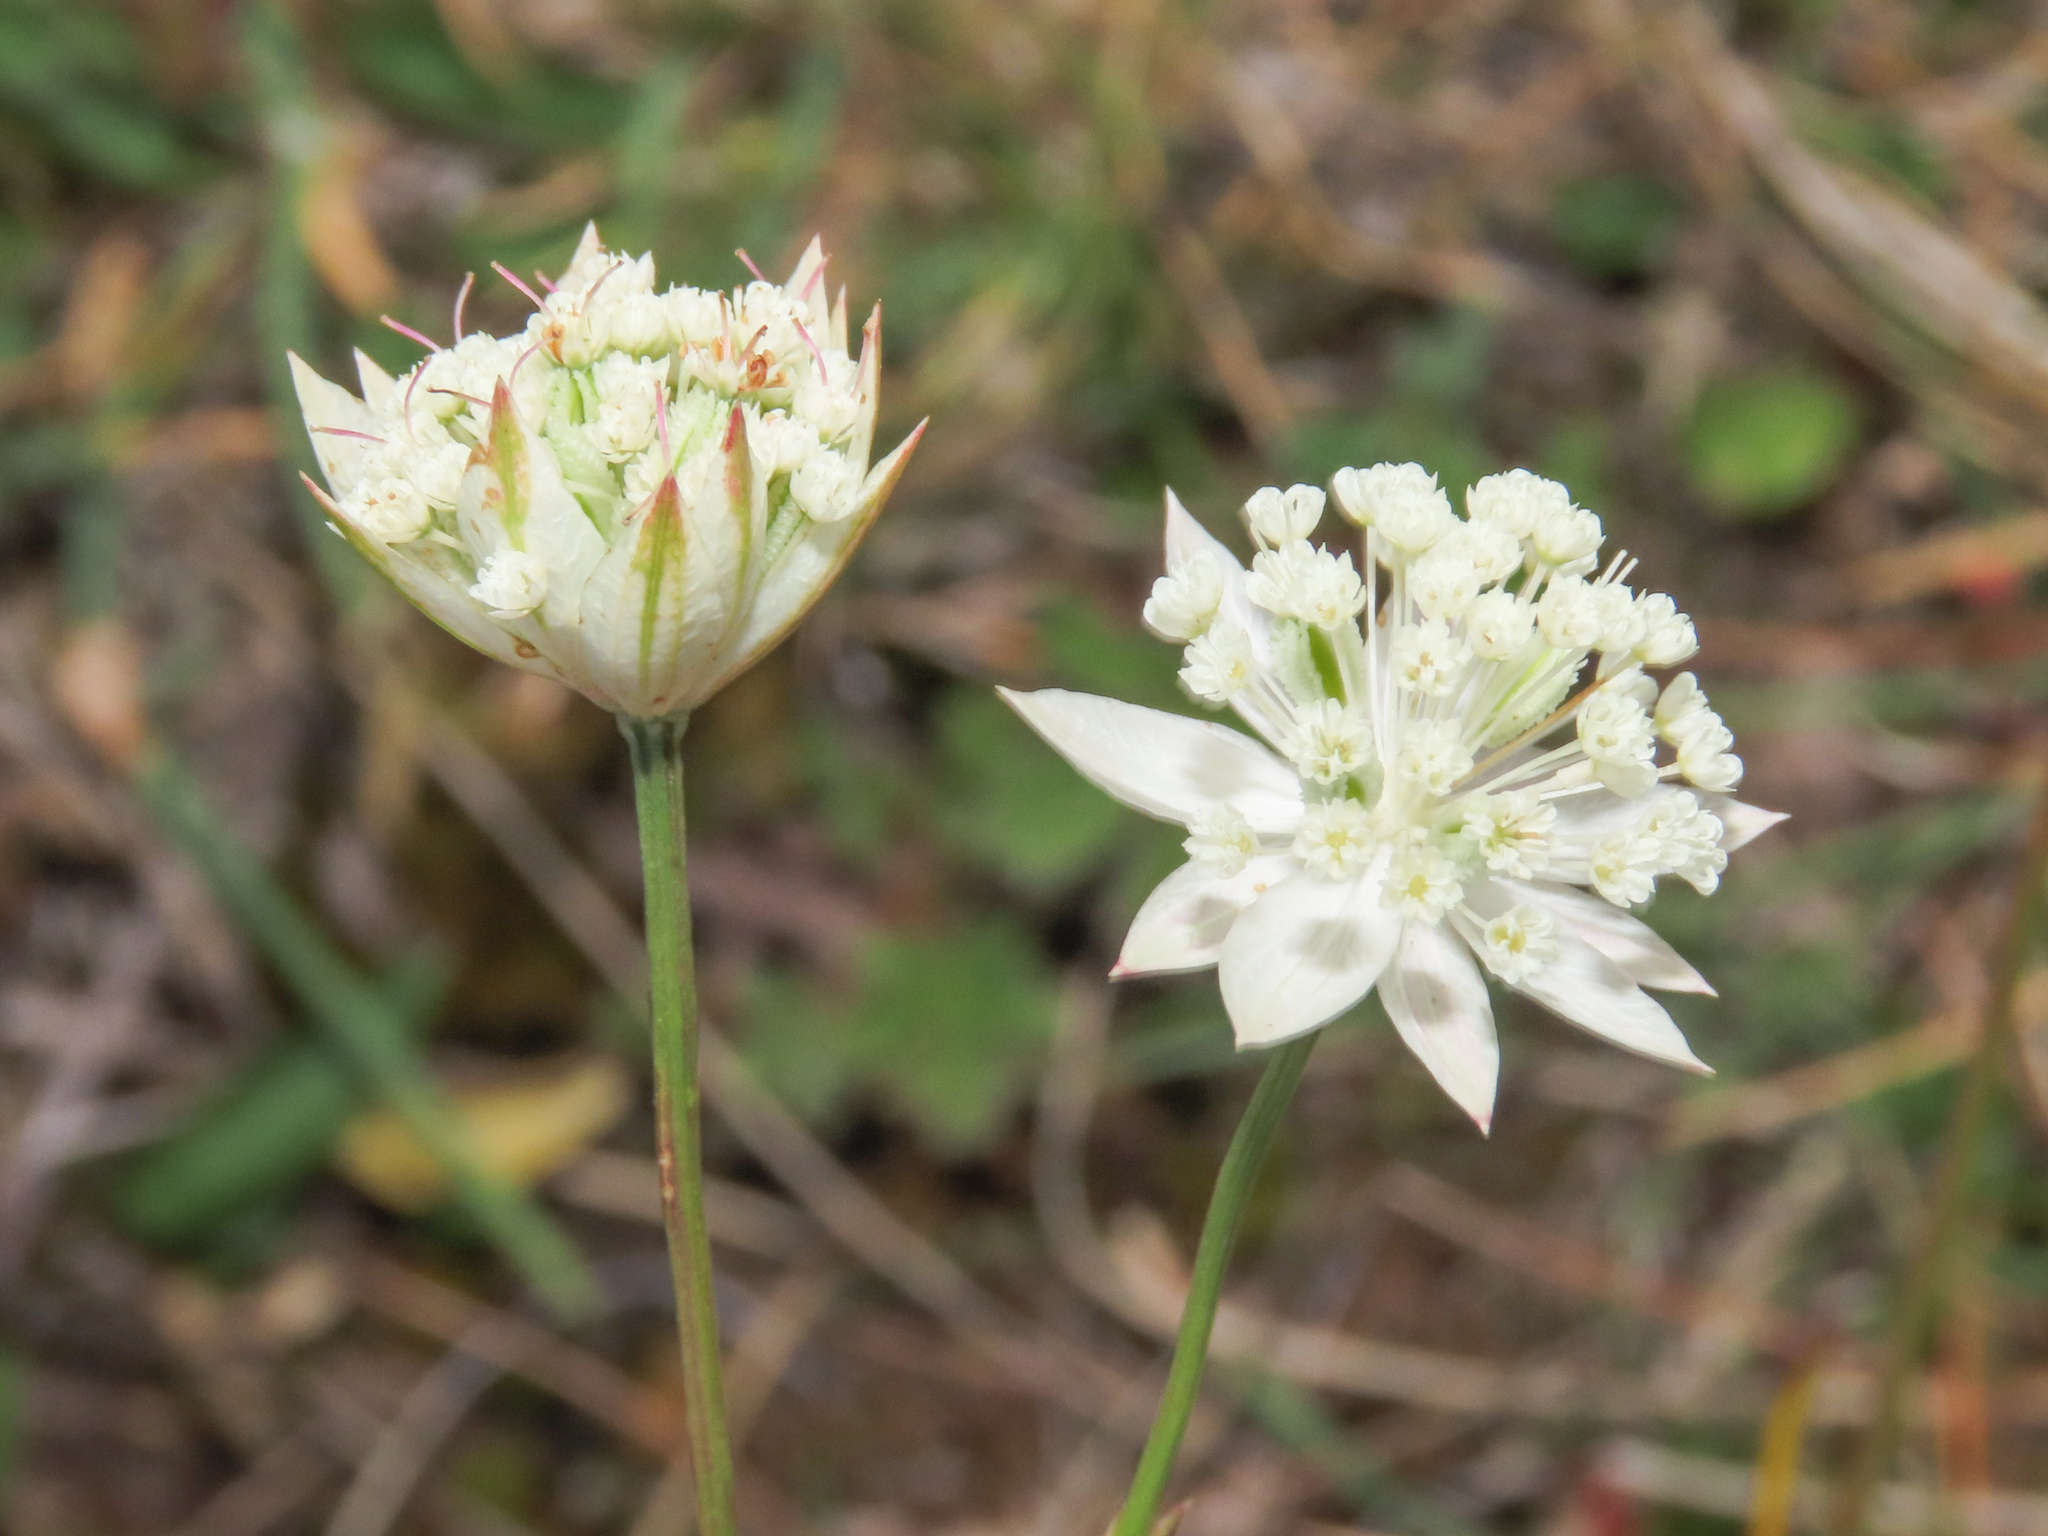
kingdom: Plantae
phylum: Tracheophyta
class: Magnoliopsida
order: Apiales
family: Apiaceae
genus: Astrantia
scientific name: Astrantia pauciflora
